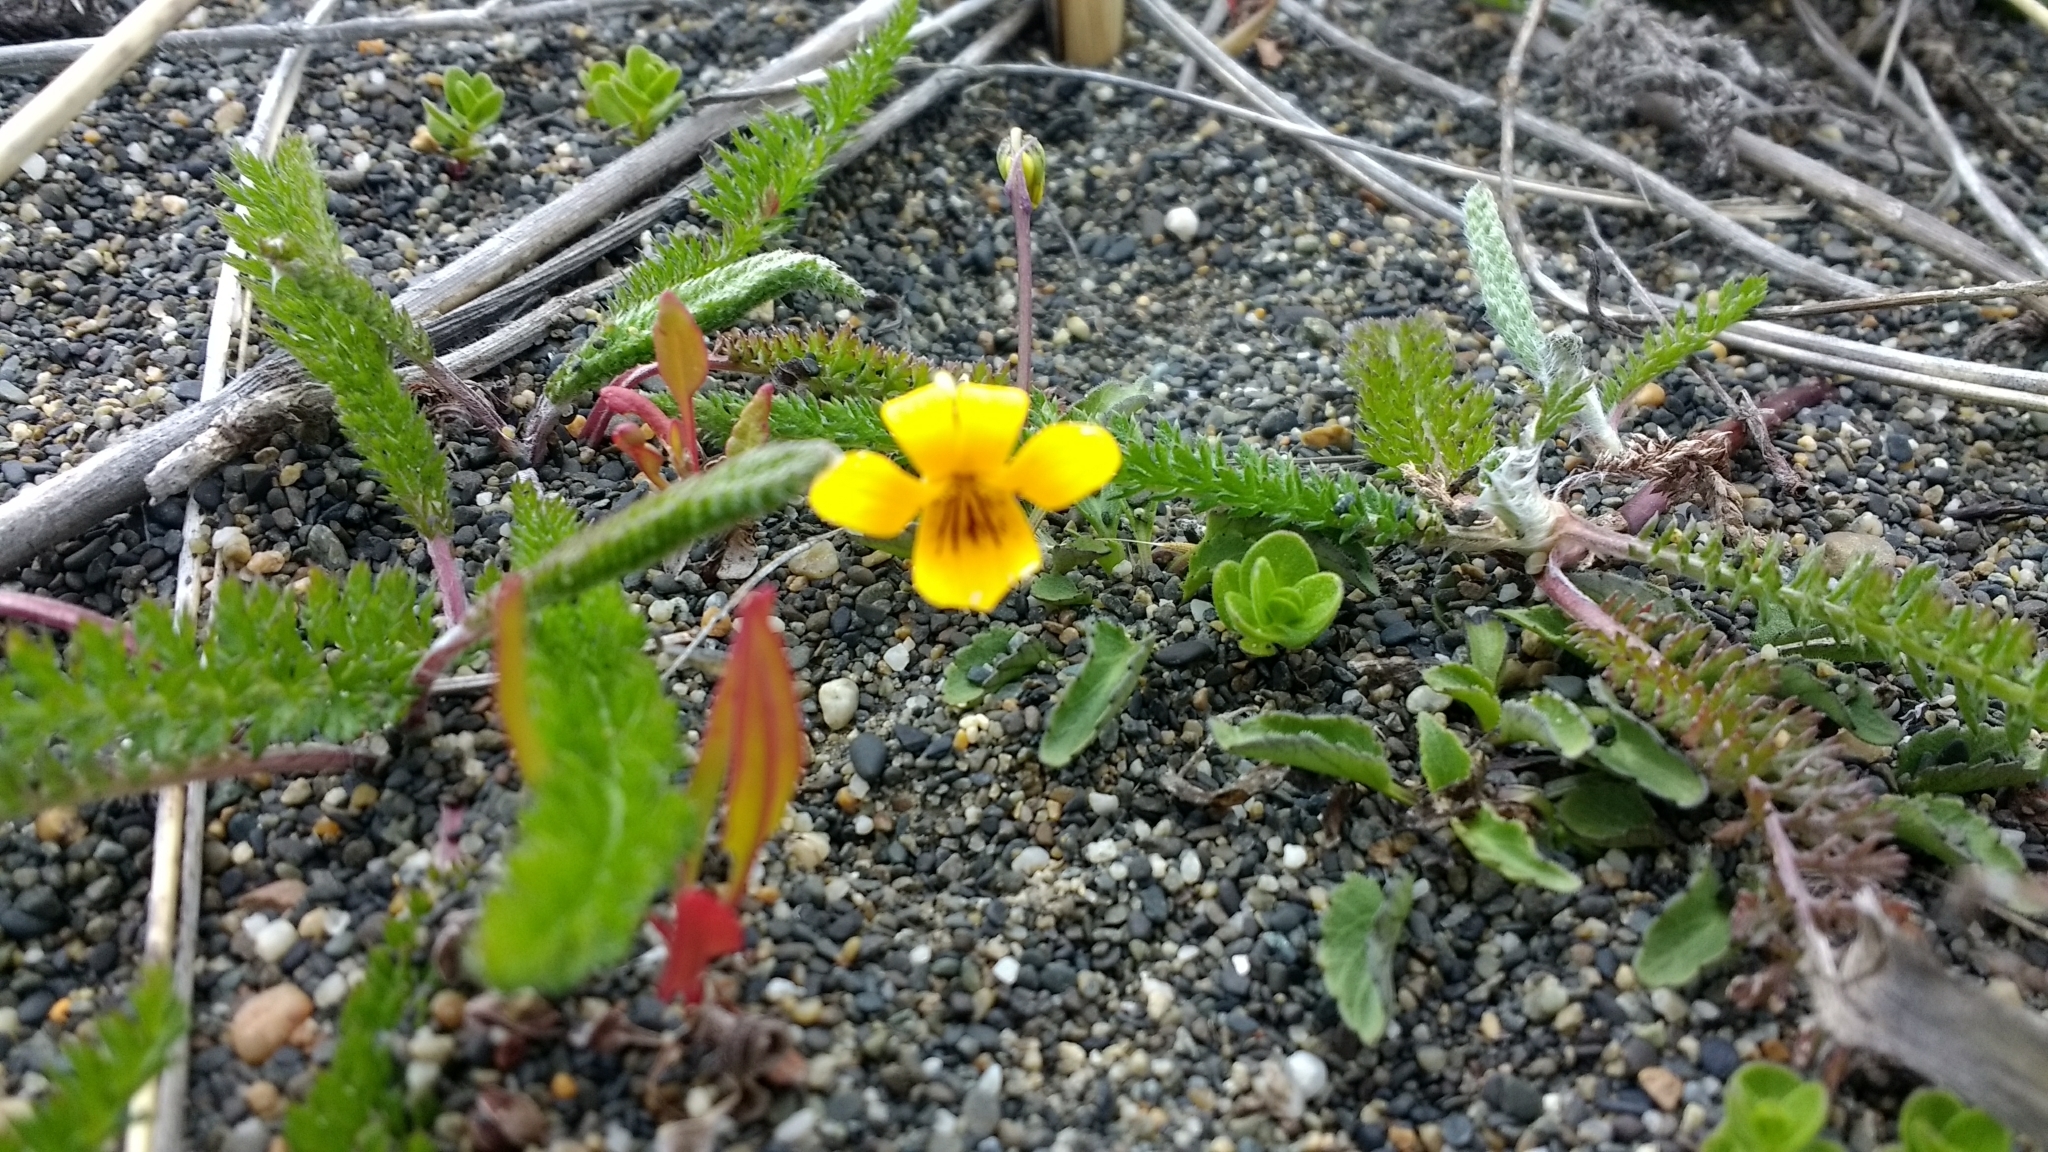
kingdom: Plantae
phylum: Tracheophyta
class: Magnoliopsida
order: Malpighiales
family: Violaceae
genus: Viola
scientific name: Viola maculata
